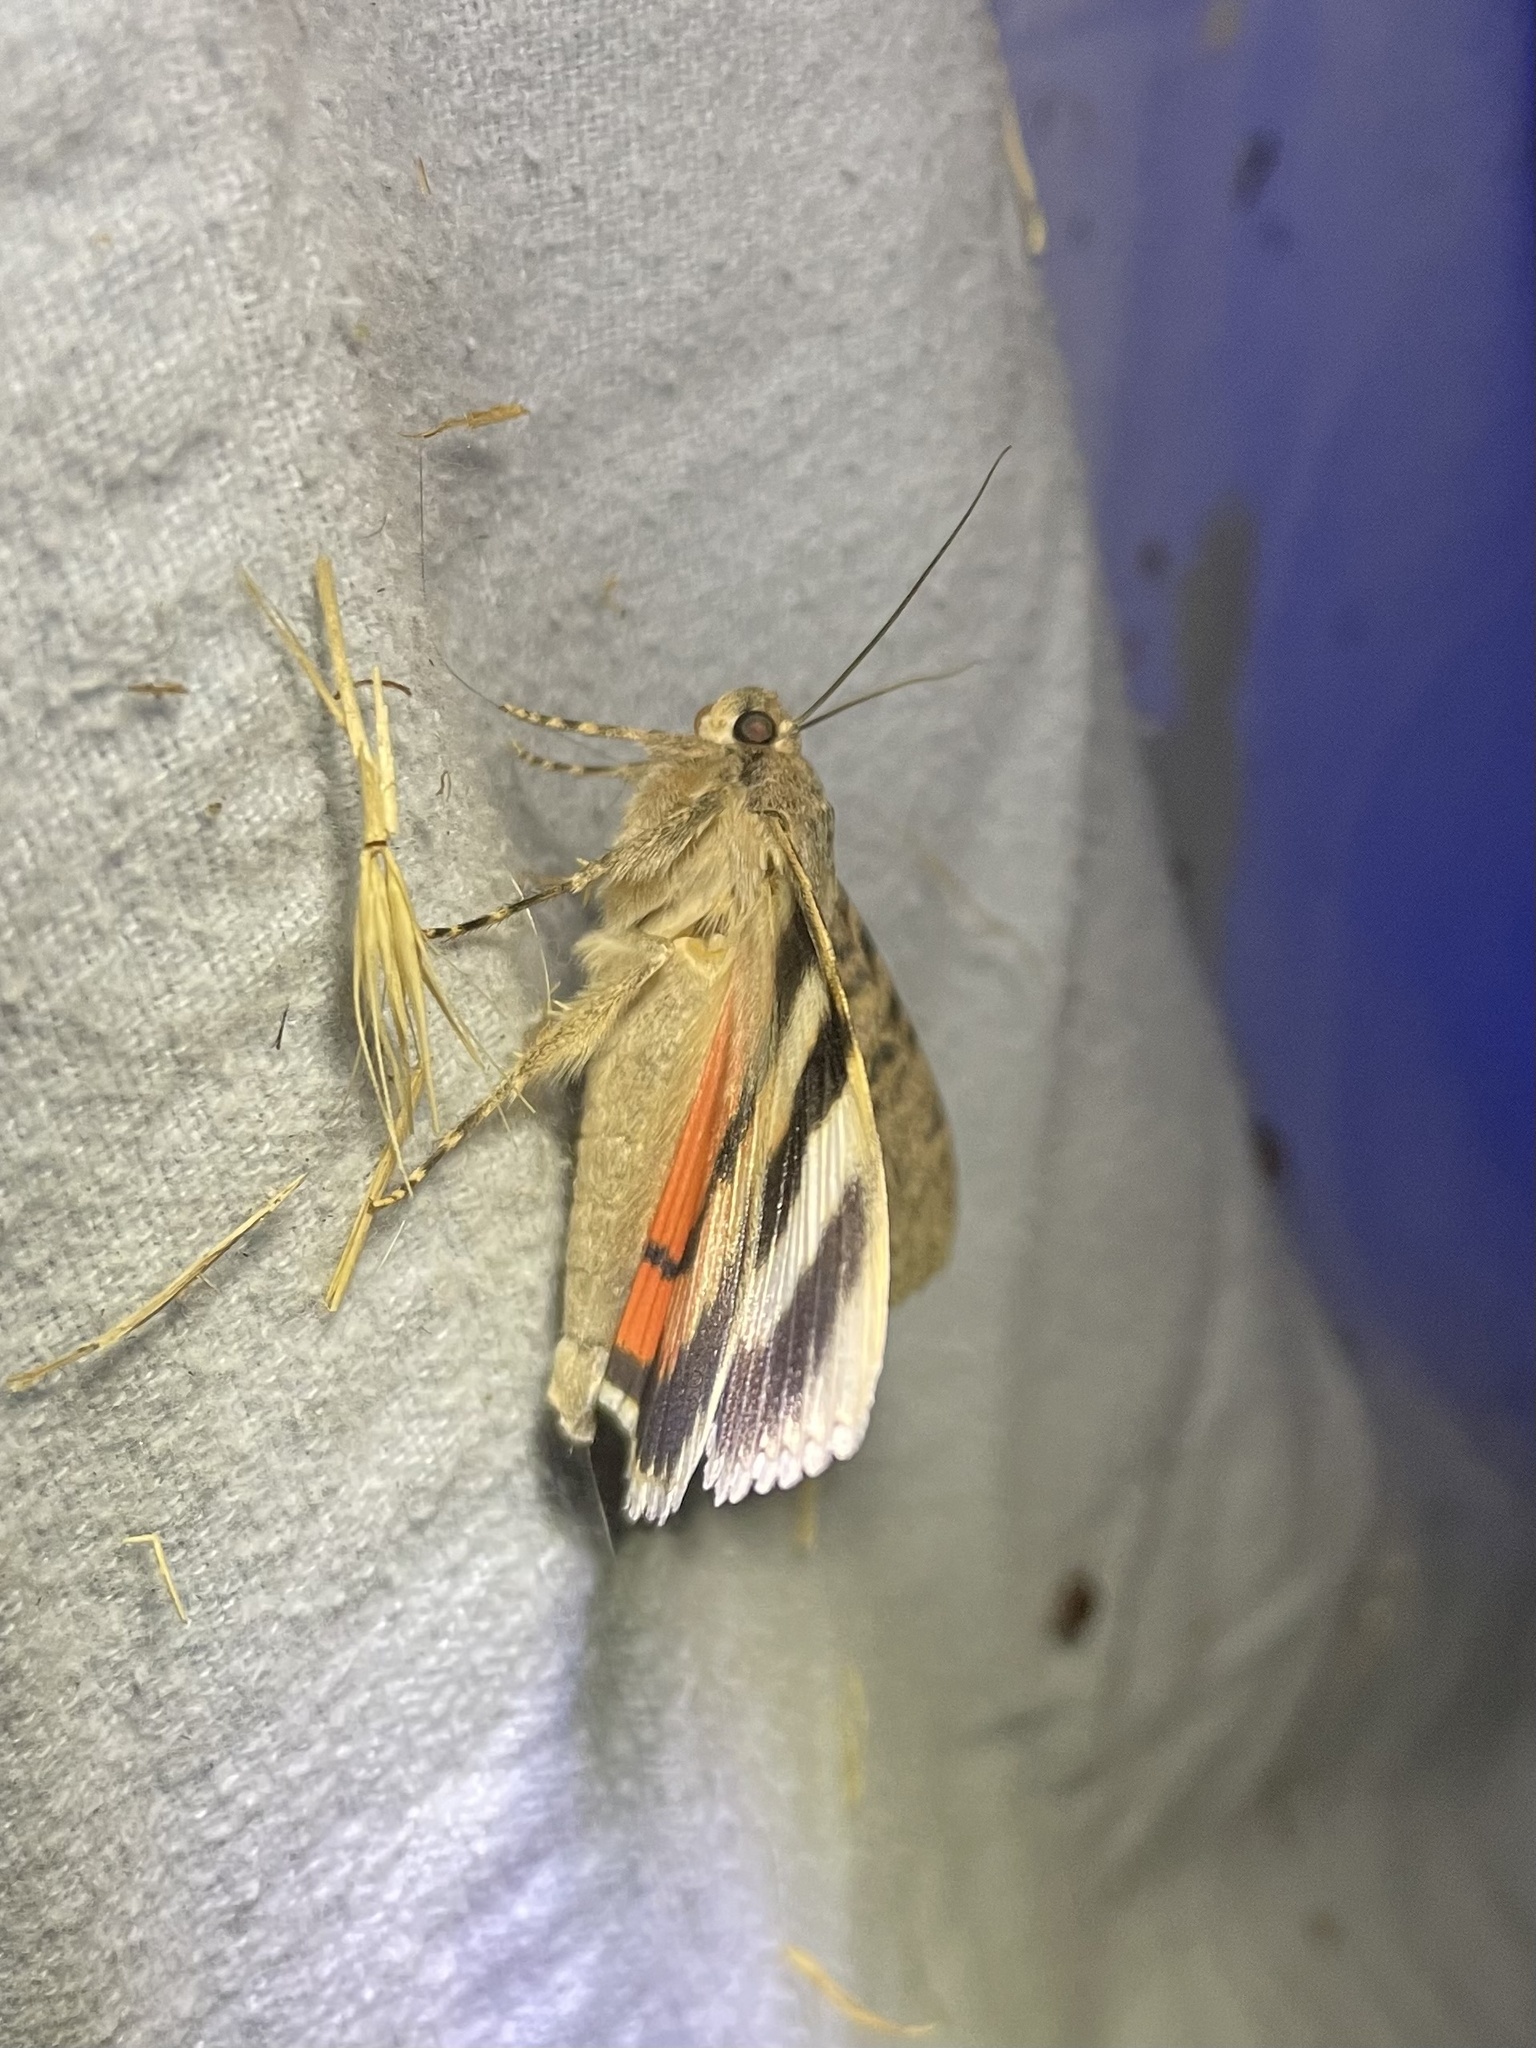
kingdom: Animalia
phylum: Arthropoda
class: Insecta
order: Lepidoptera
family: Erebidae
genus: Catocala
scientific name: Catocala junctura
